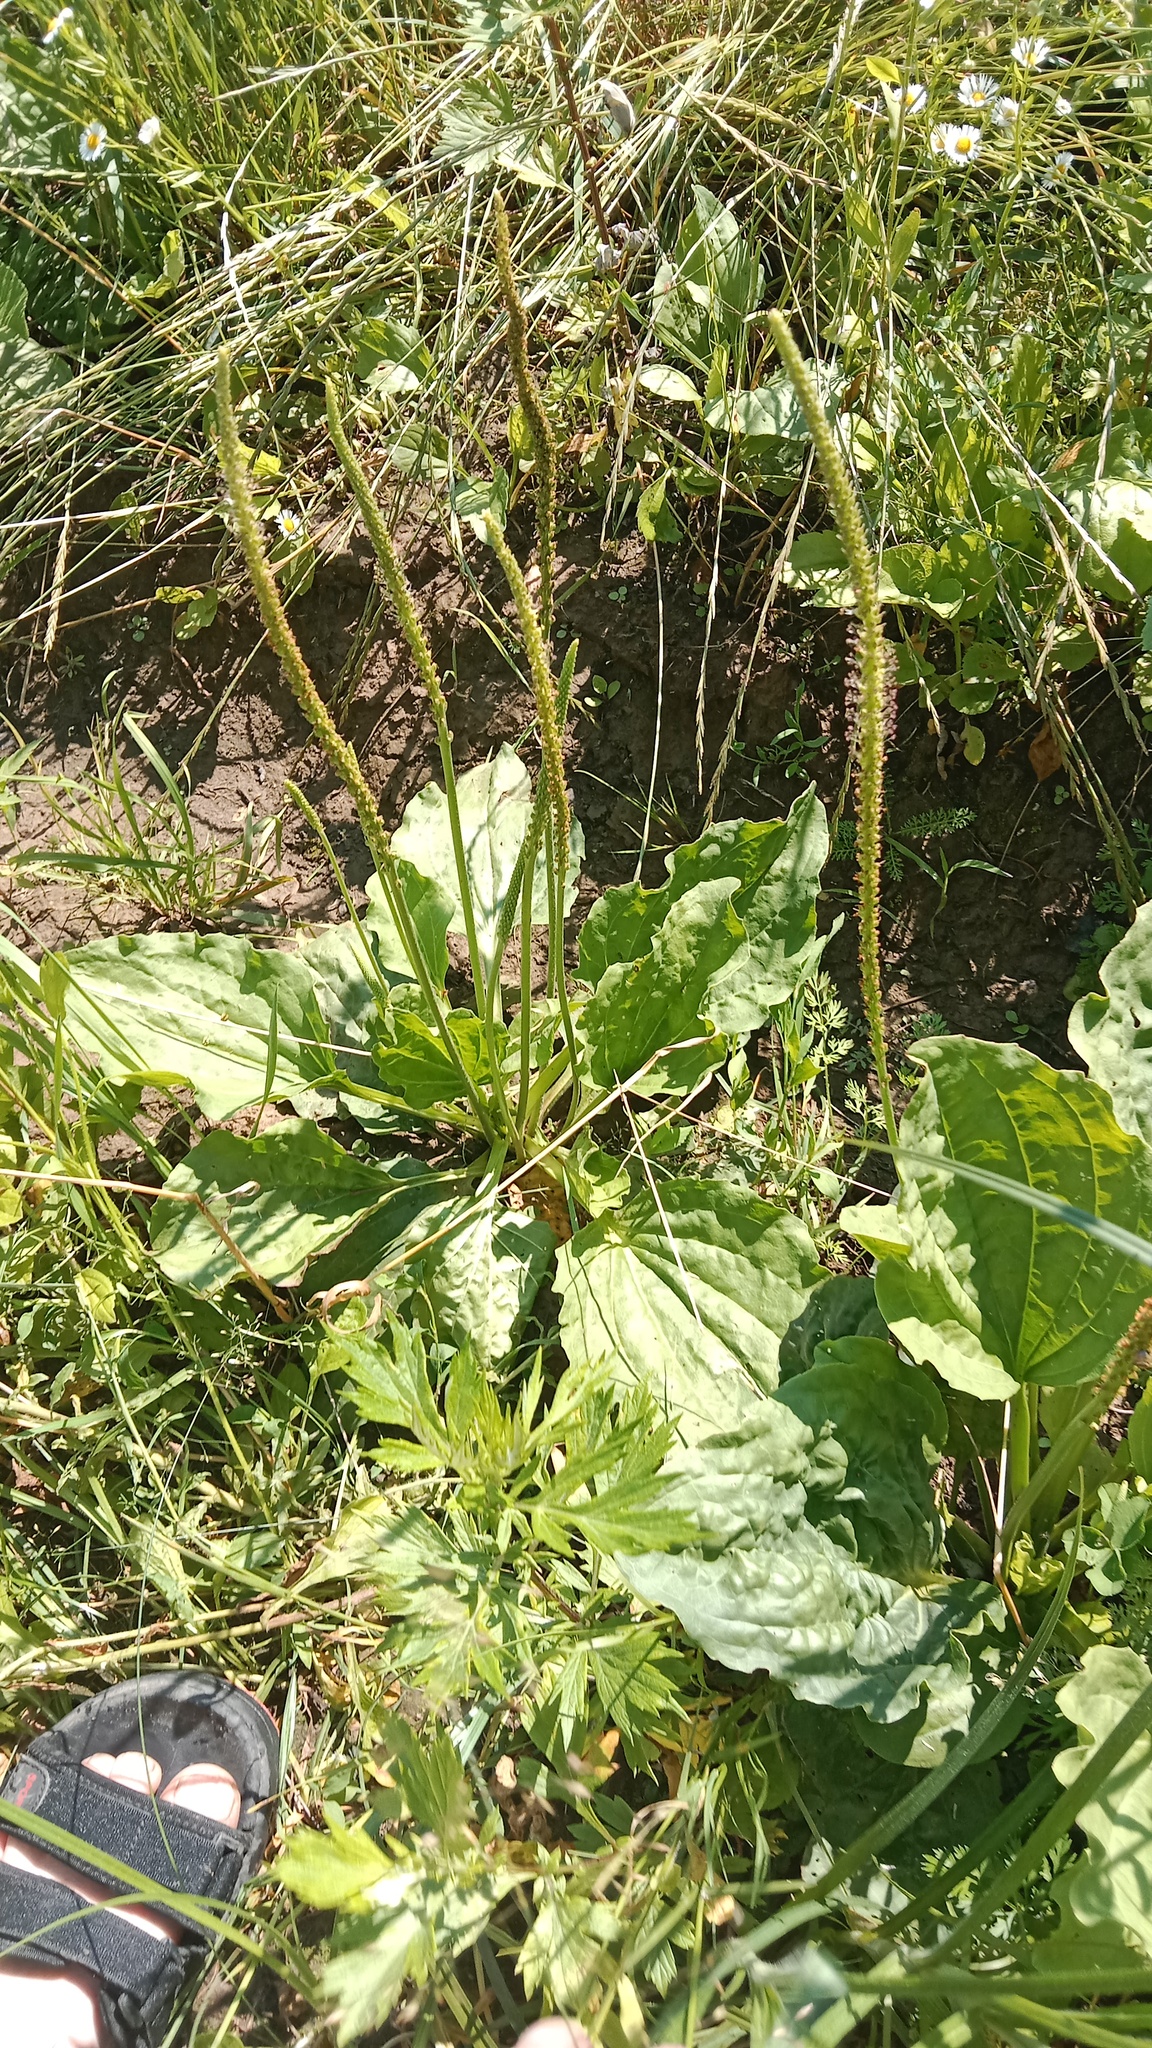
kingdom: Plantae
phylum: Tracheophyta
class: Magnoliopsida
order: Lamiales
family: Plantaginaceae
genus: Plantago
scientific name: Plantago major
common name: Common plantain
